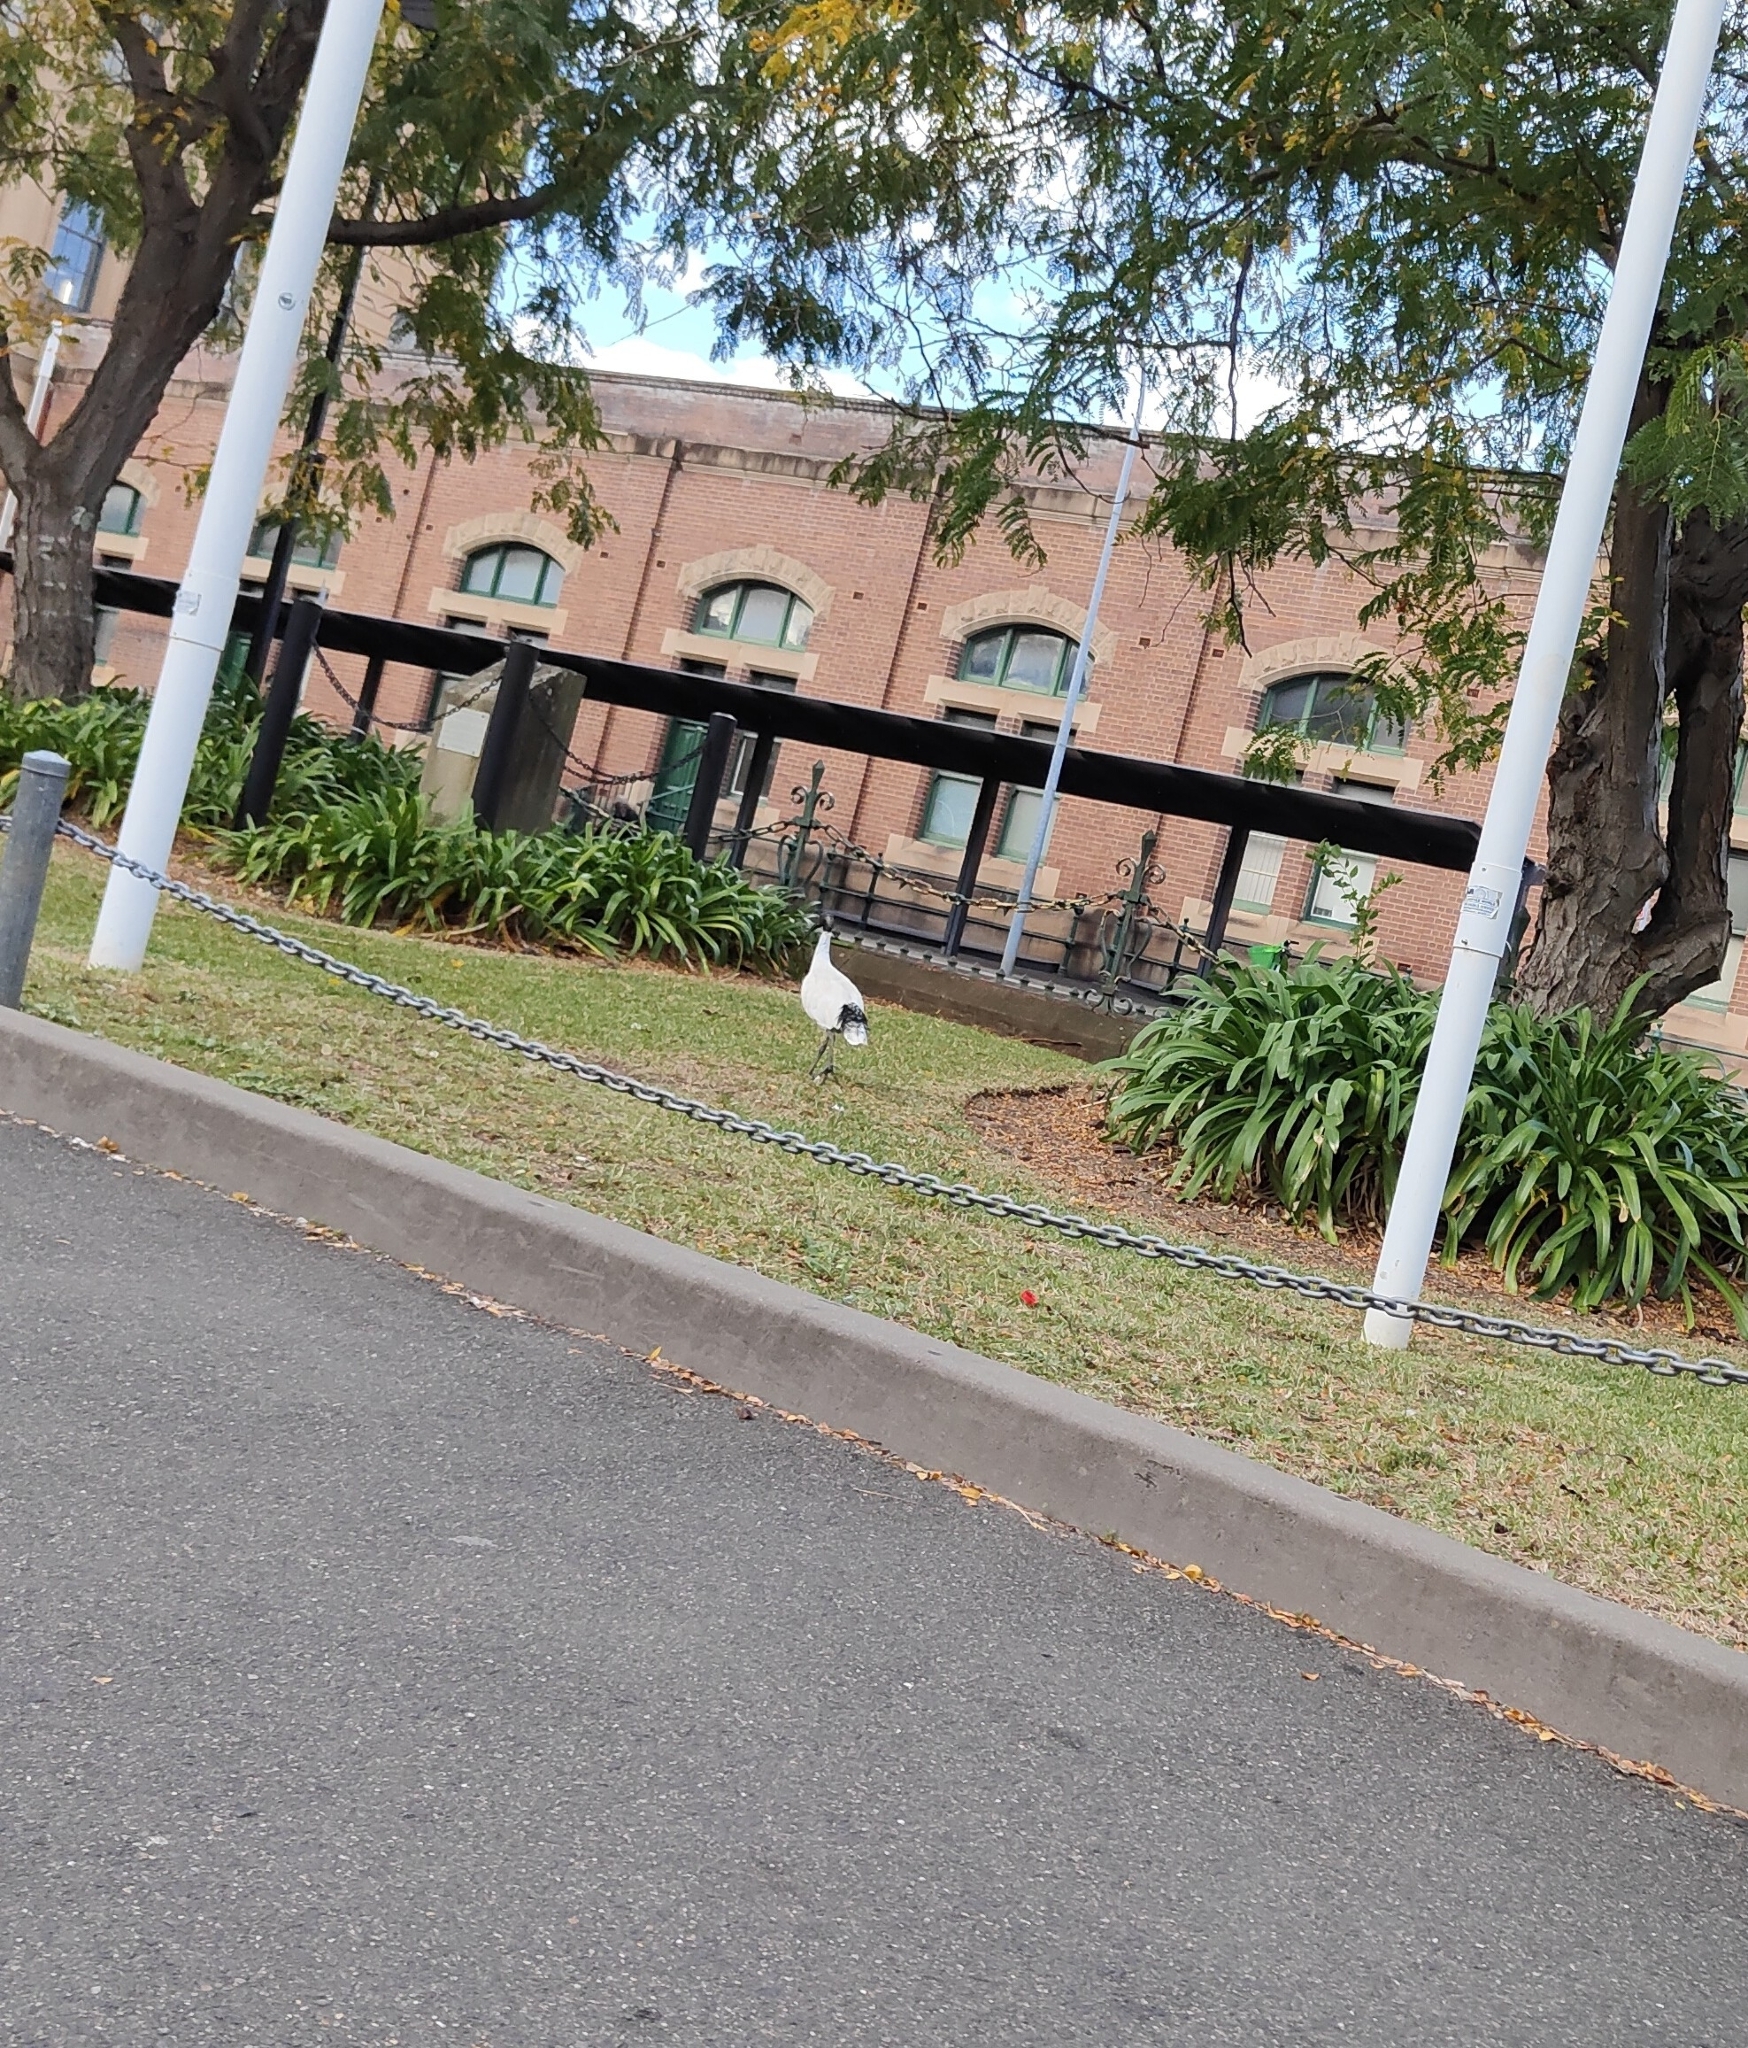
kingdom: Animalia
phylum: Chordata
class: Aves
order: Pelecaniformes
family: Threskiornithidae
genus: Threskiornis
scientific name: Threskiornis molucca
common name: Australian white ibis
